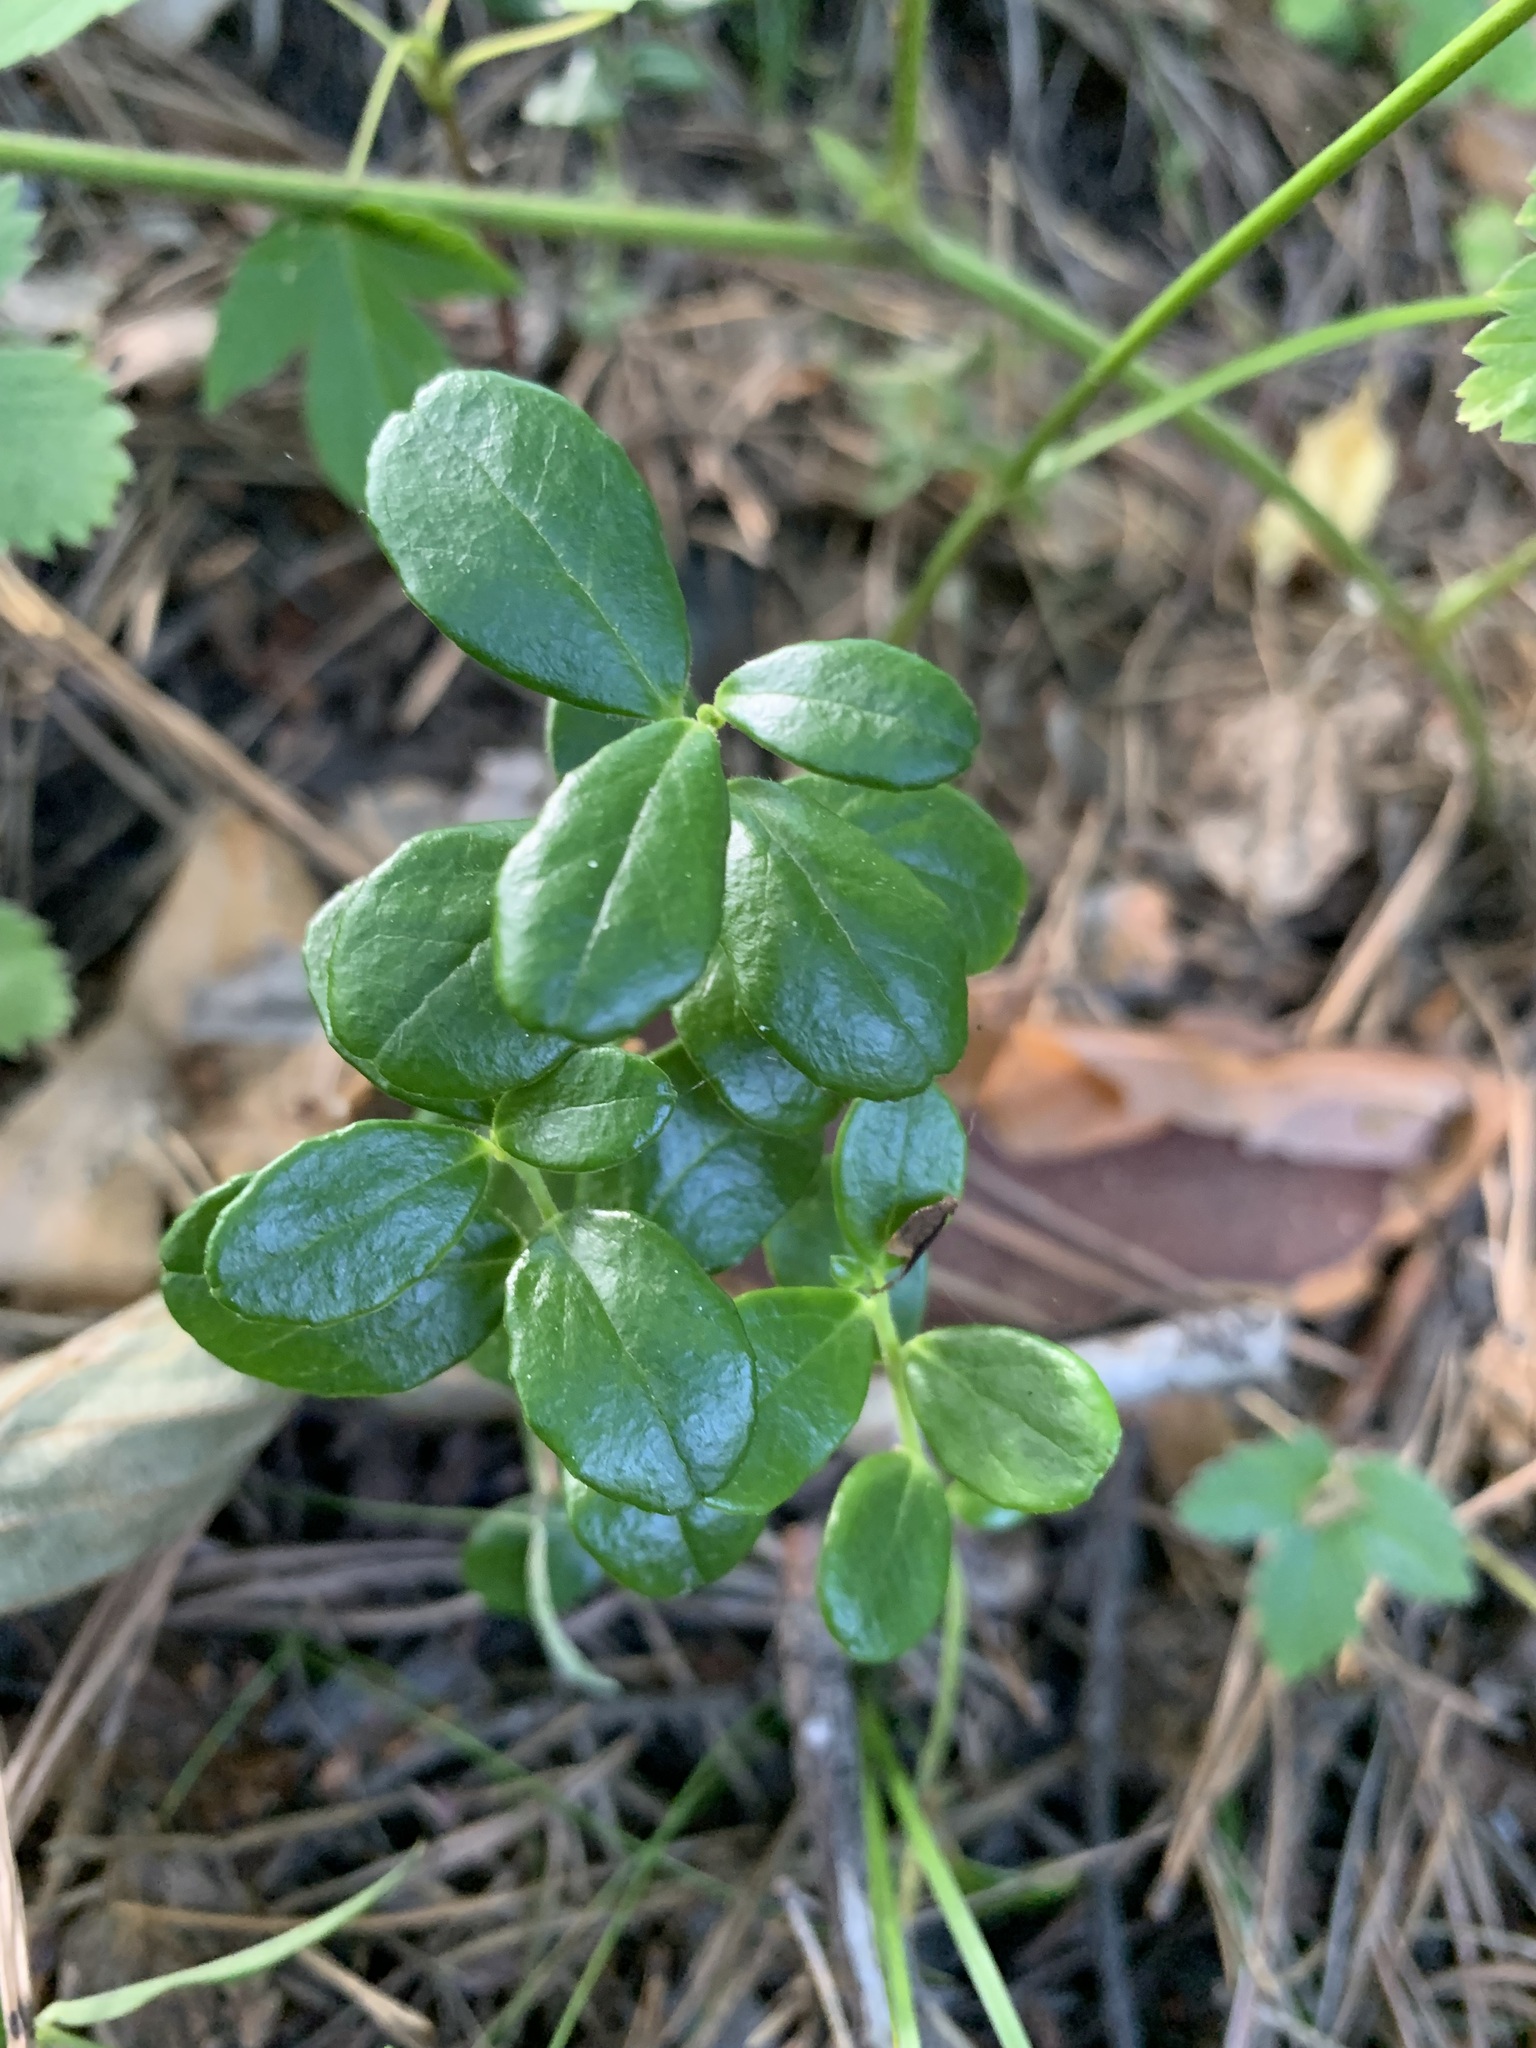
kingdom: Plantae
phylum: Tracheophyta
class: Magnoliopsida
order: Ericales
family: Ericaceae
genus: Vaccinium
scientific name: Vaccinium vitis-idaea
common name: Cowberry
